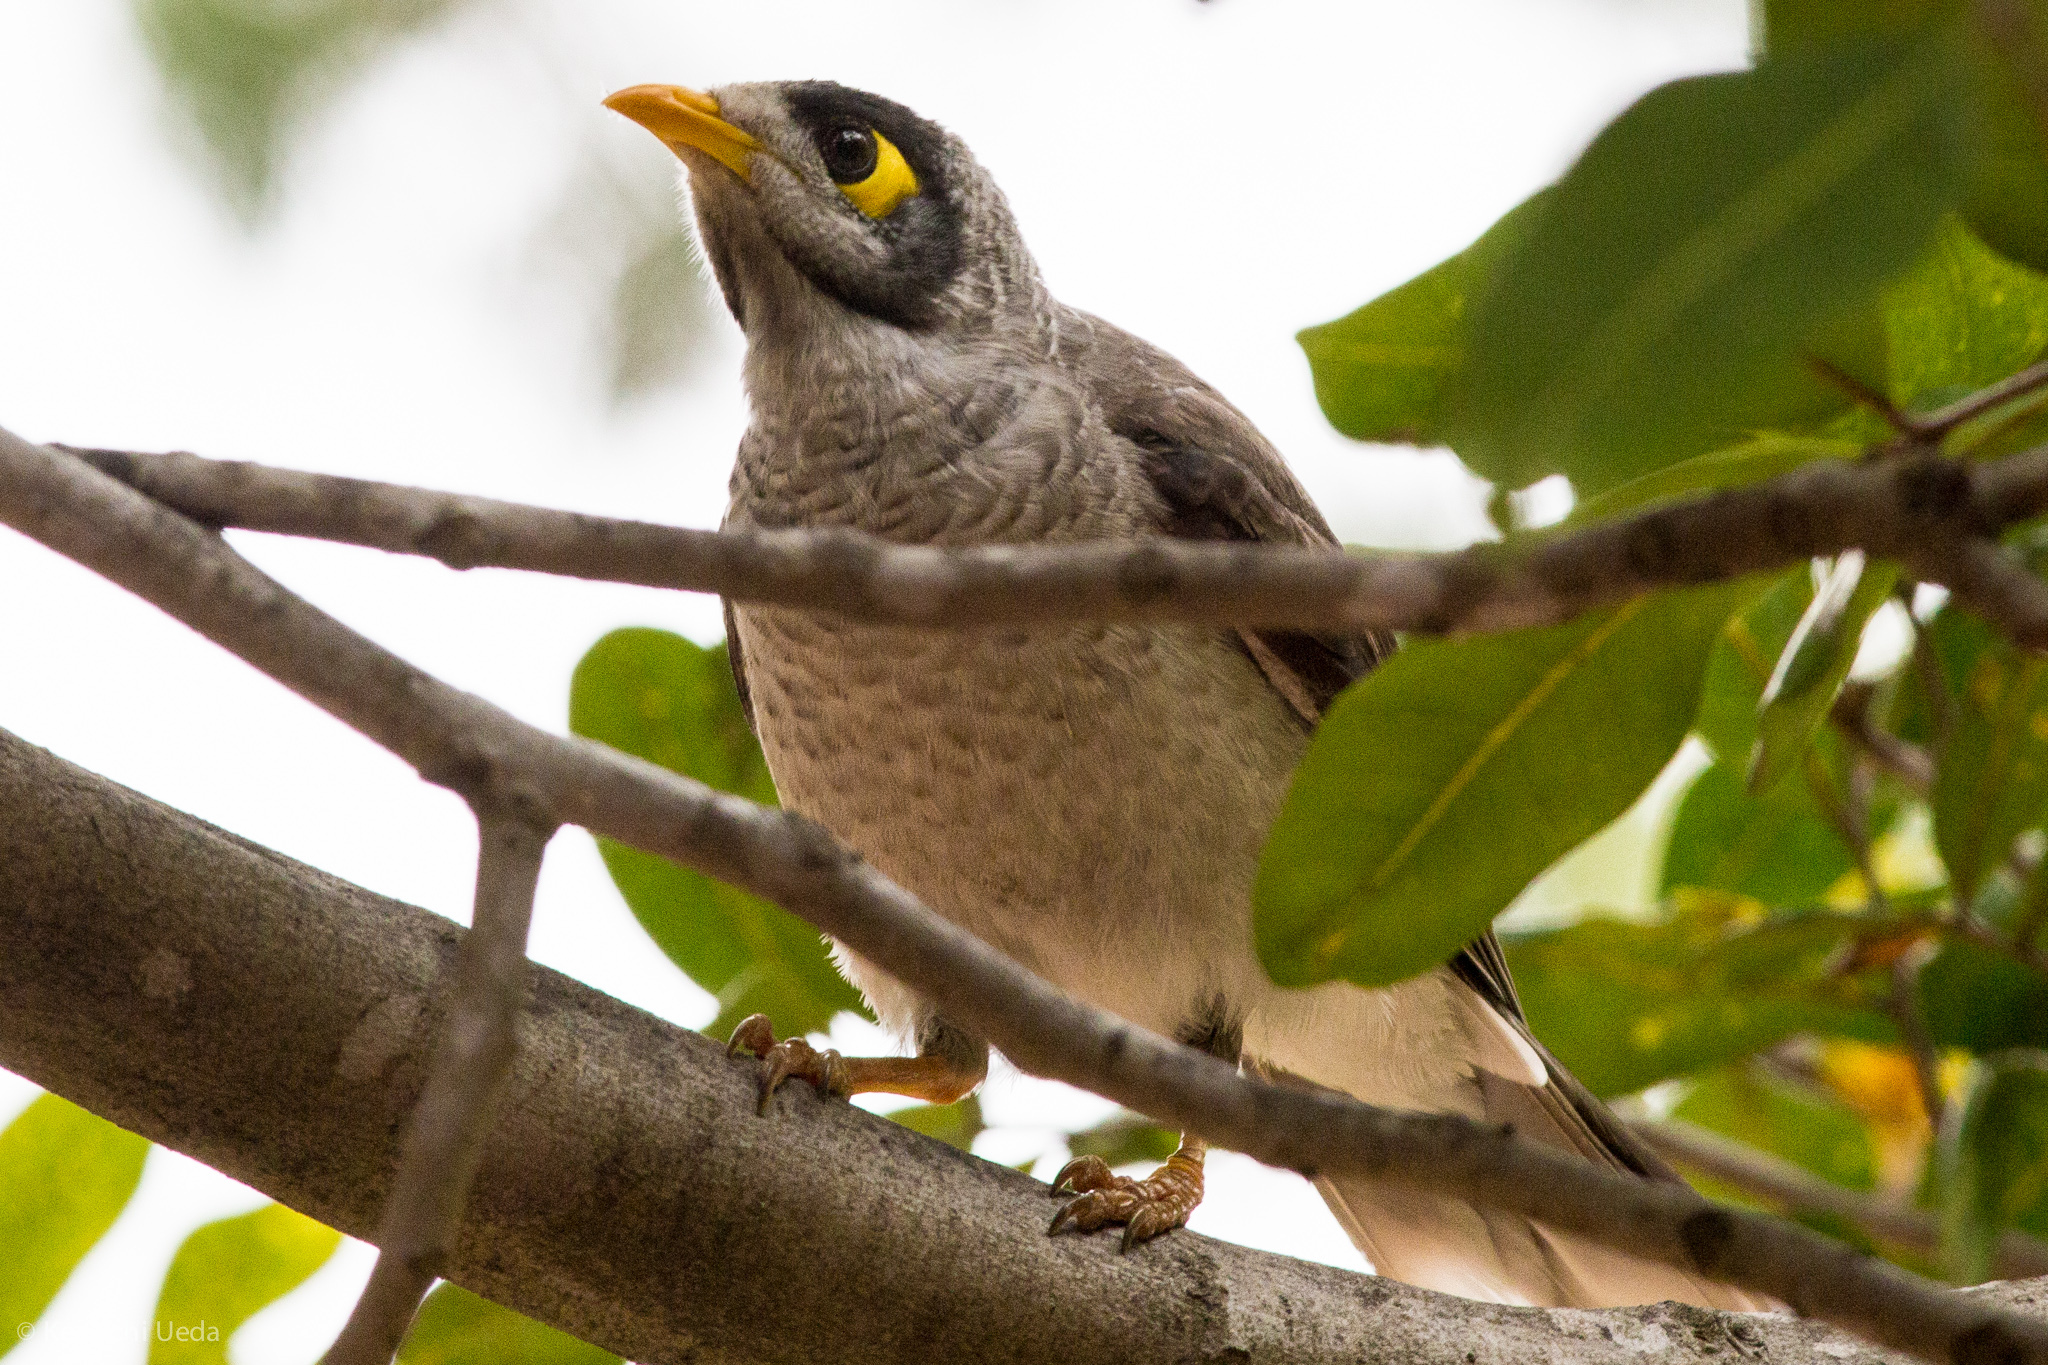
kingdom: Animalia
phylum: Chordata
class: Aves
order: Passeriformes
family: Meliphagidae
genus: Manorina
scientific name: Manorina melanocephala
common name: Noisy miner
